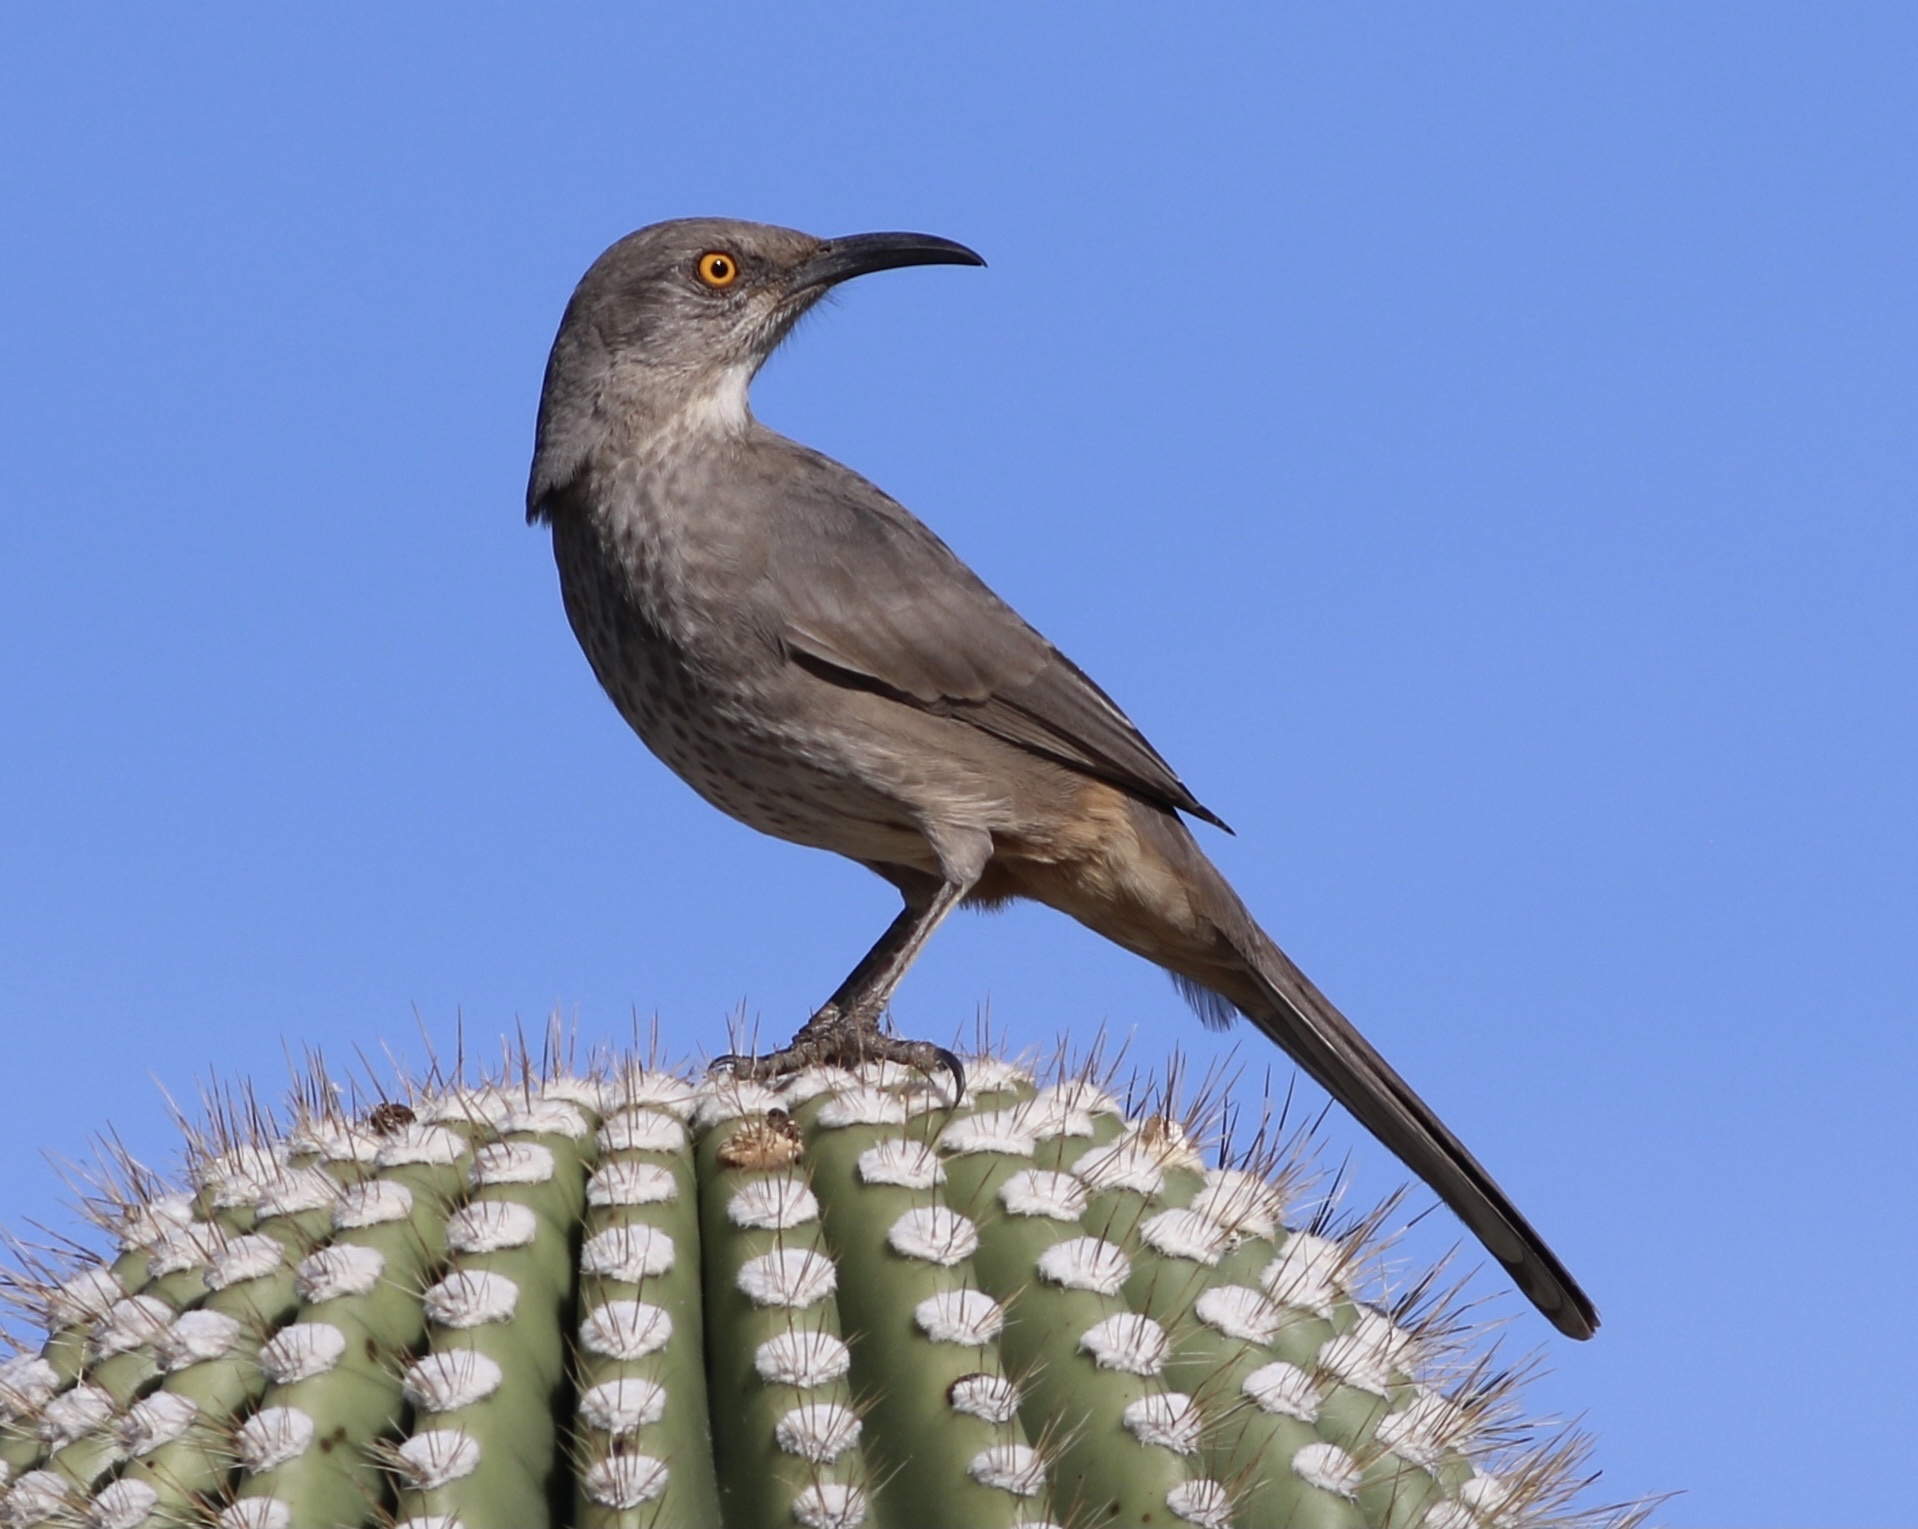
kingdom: Animalia
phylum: Chordata
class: Aves
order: Passeriformes
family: Mimidae
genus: Toxostoma
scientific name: Toxostoma curvirostre
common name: Curve-billed thrasher
